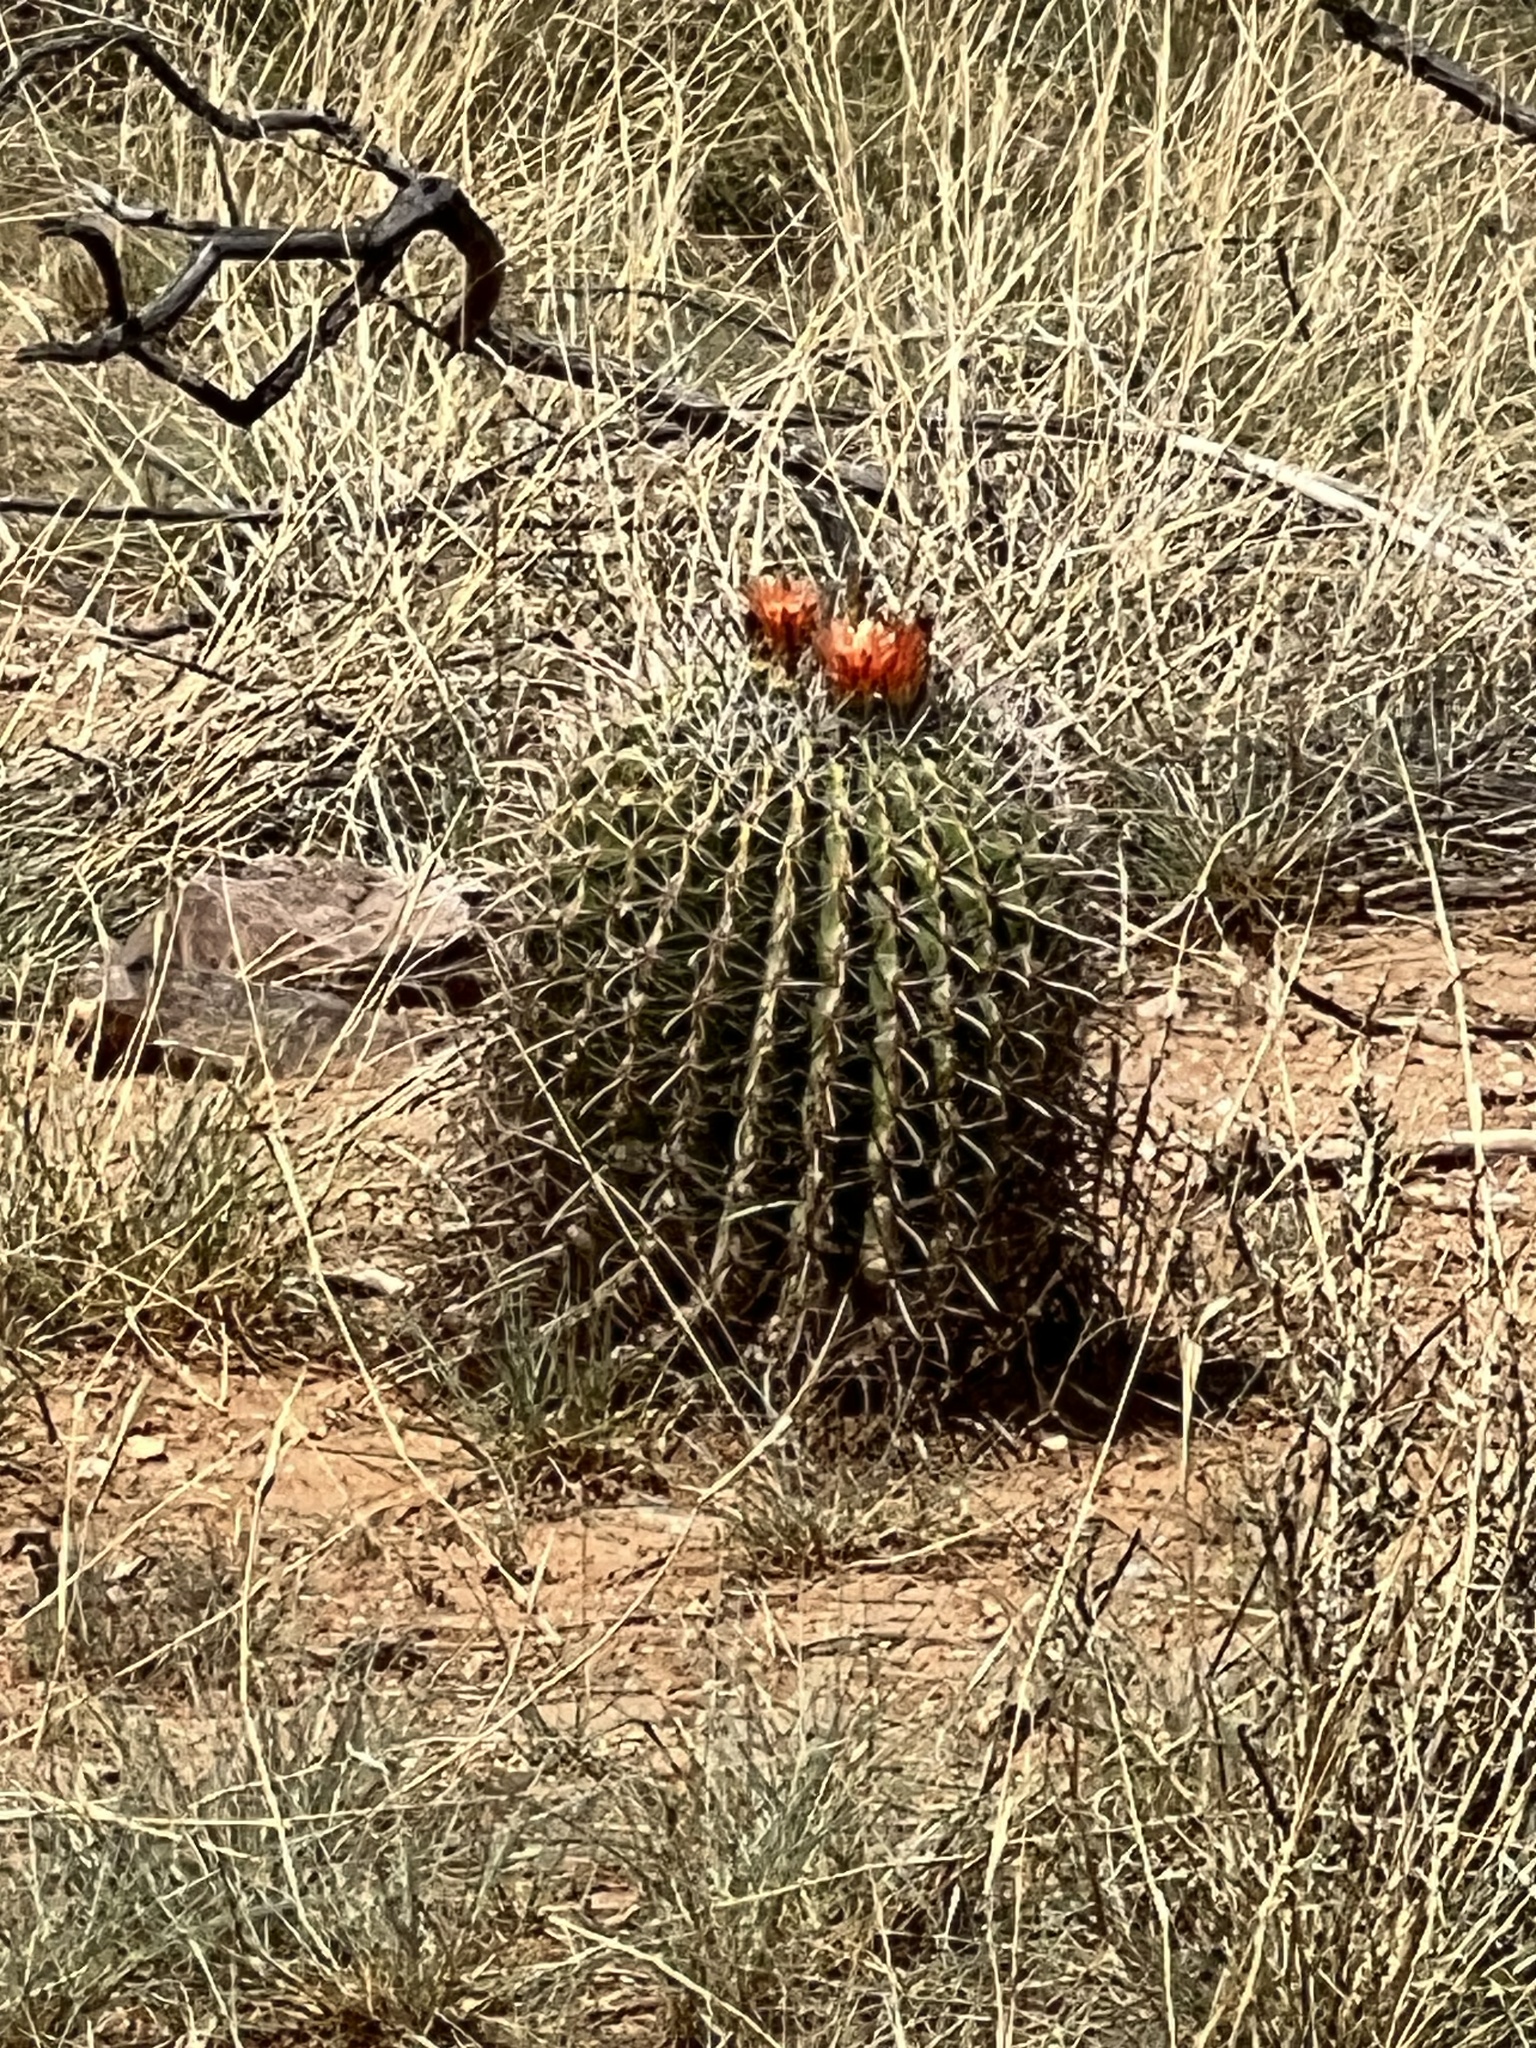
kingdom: Plantae
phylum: Tracheophyta
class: Magnoliopsida
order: Caryophyllales
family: Cactaceae
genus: Ferocactus
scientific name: Ferocactus wislizeni
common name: Candy barrel cactus
